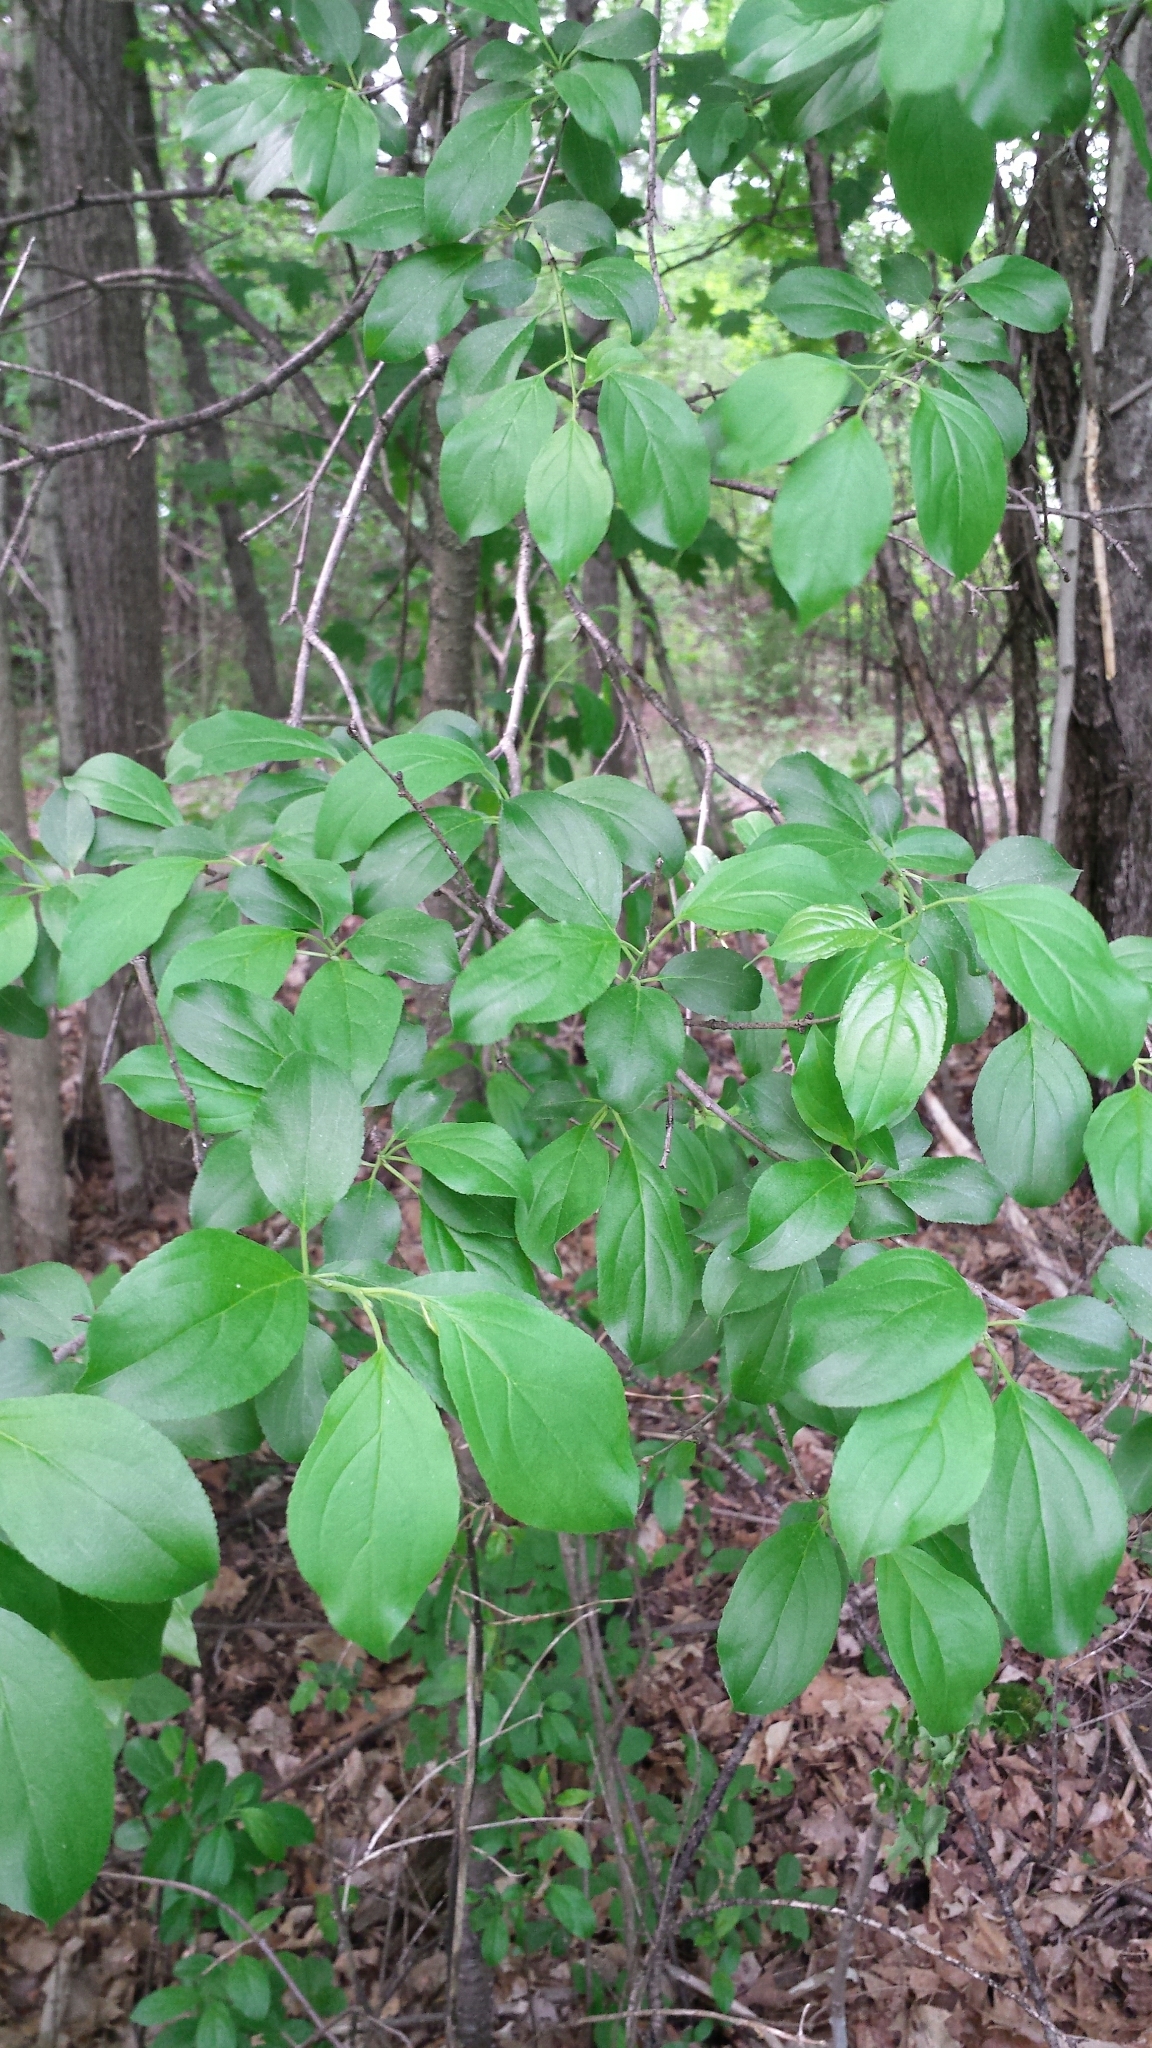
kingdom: Plantae
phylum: Tracheophyta
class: Magnoliopsida
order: Rosales
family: Rhamnaceae
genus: Rhamnus
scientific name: Rhamnus cathartica
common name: Common buckthorn
